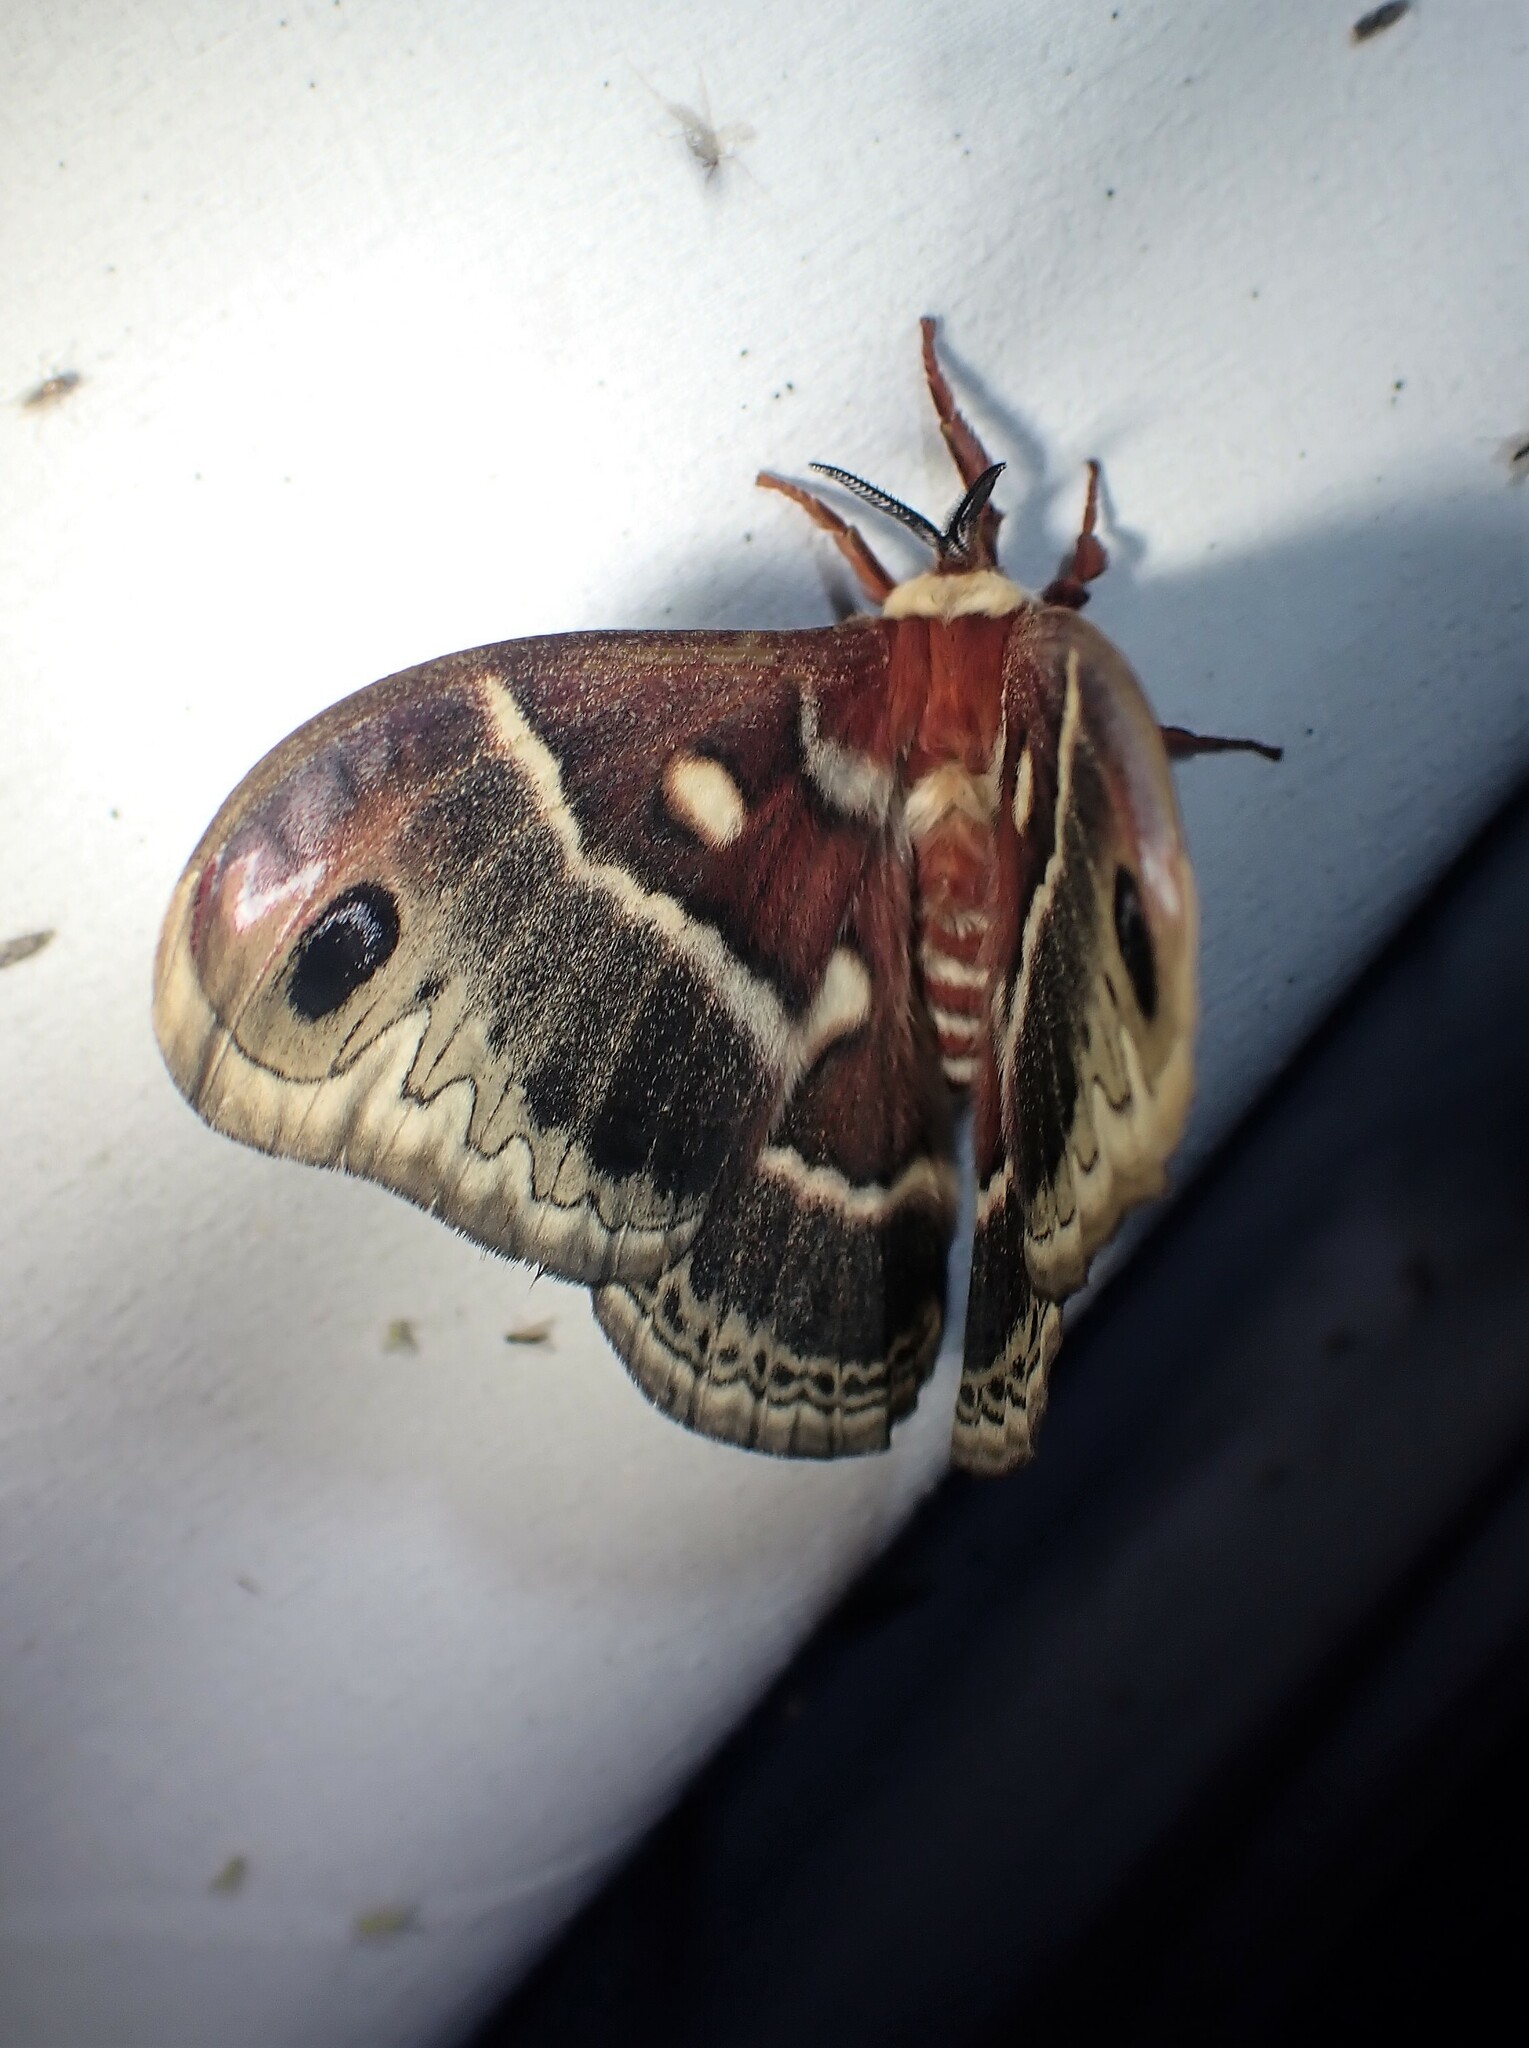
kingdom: Animalia
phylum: Arthropoda
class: Insecta
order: Lepidoptera
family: Saturniidae
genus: Hyalophora
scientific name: Hyalophora columbia
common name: Columbia silkmoth
